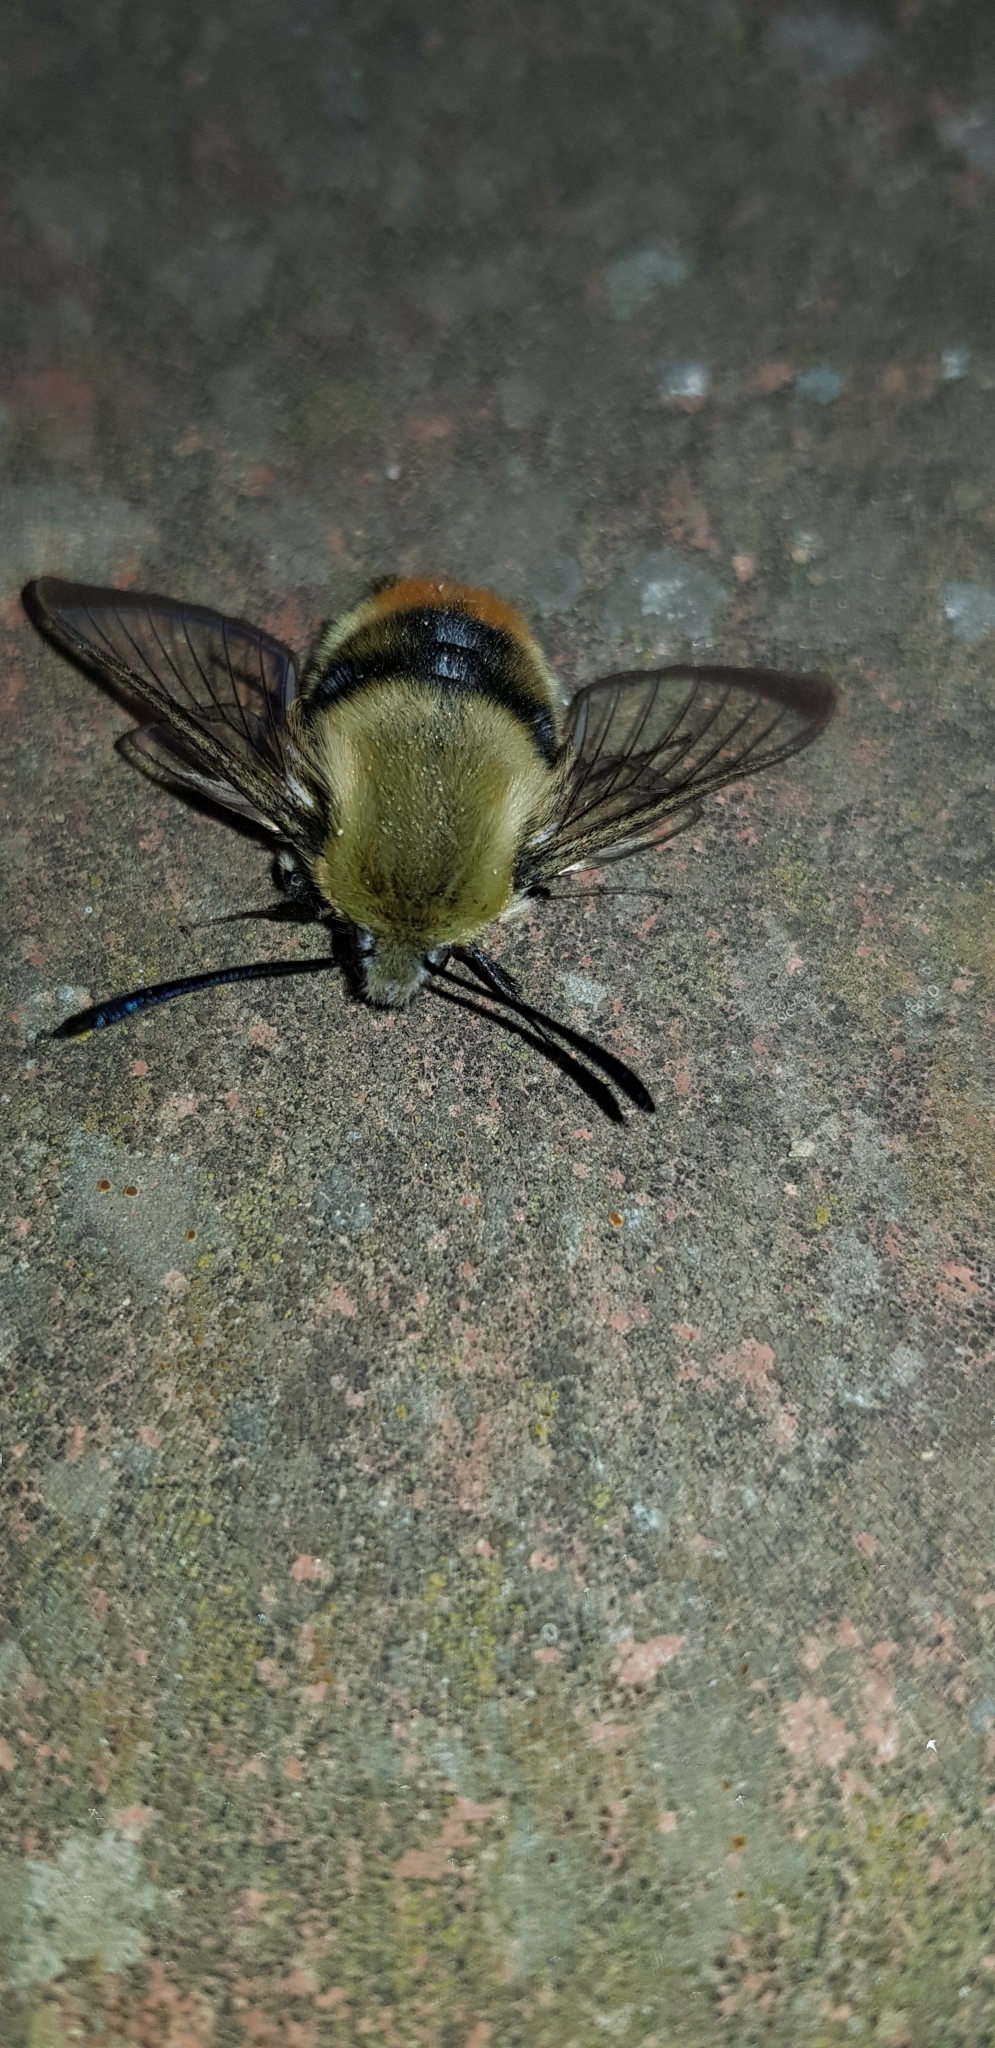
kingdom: Animalia
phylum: Arthropoda
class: Insecta
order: Lepidoptera
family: Sphingidae
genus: Hemaris
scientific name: Hemaris tityus
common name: Narrow-bordered bee hawk-moth
